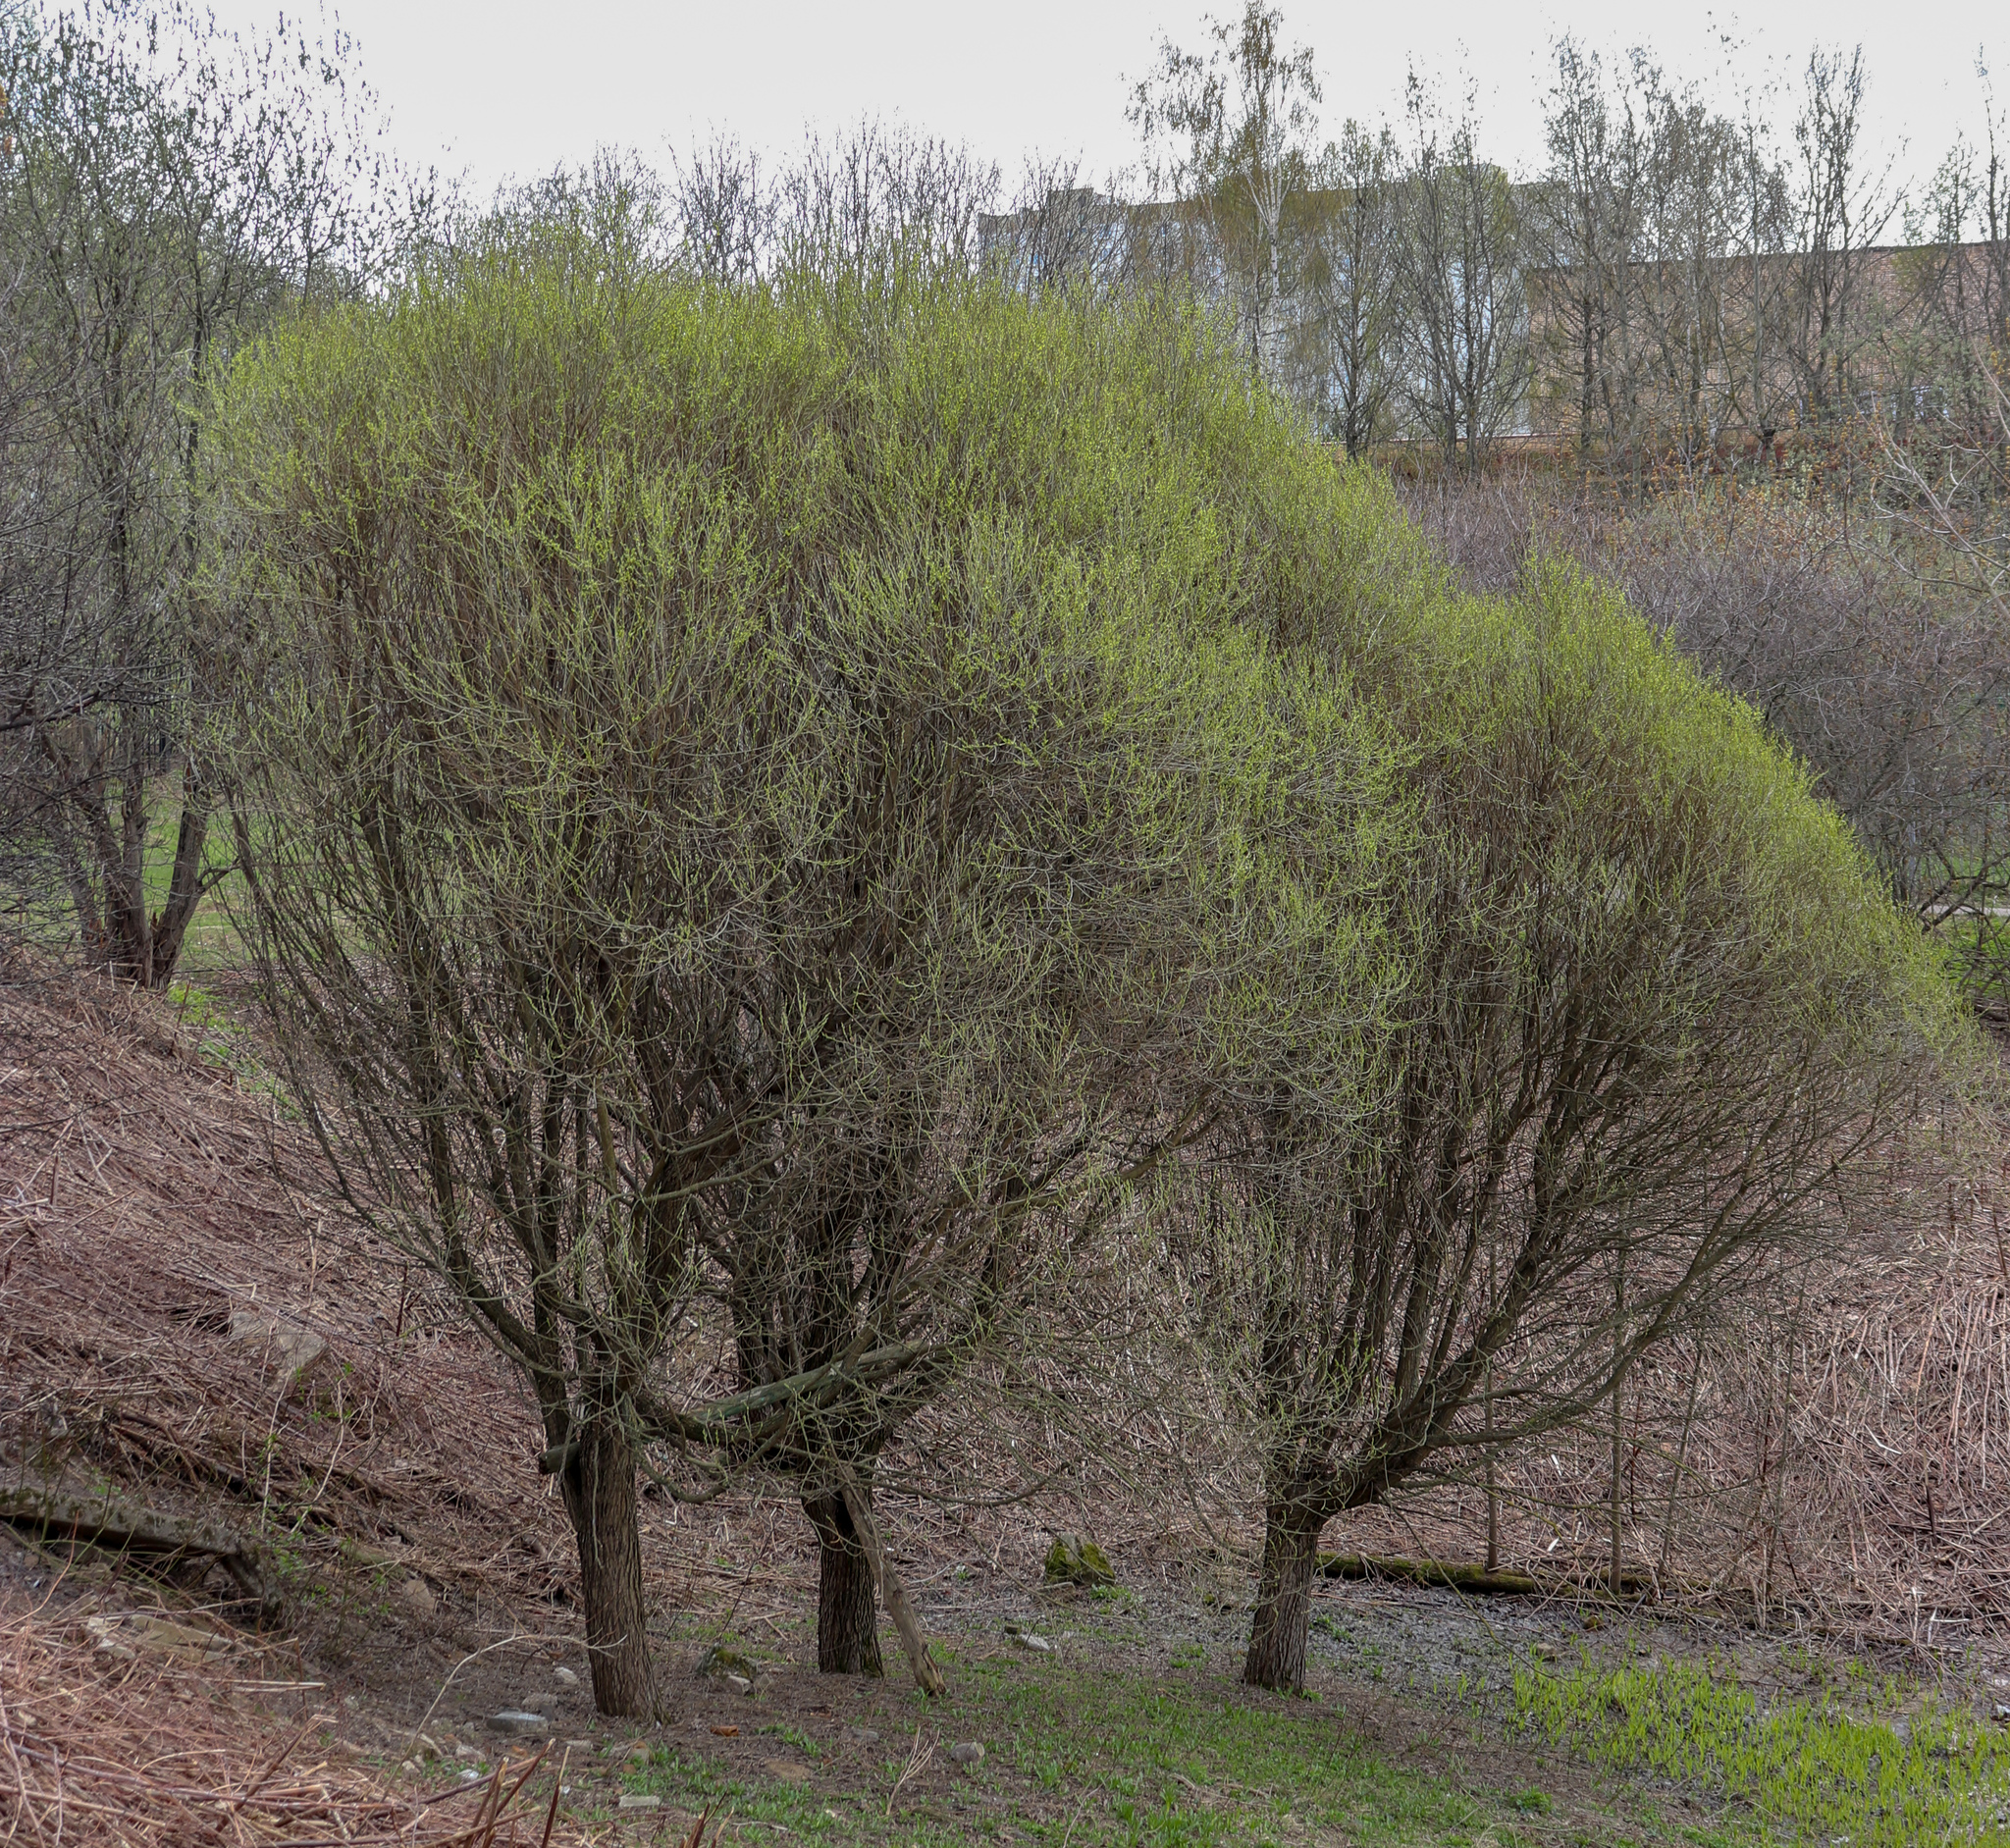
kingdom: Plantae
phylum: Tracheophyta
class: Magnoliopsida
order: Malpighiales
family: Salicaceae
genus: Salix
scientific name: Salix alba
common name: White willow
